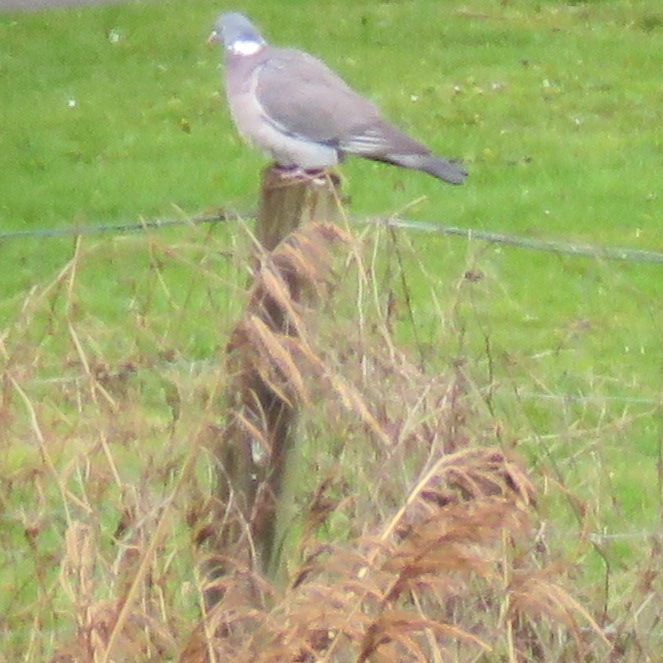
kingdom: Animalia
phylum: Chordata
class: Aves
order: Columbiformes
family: Columbidae
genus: Columba
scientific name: Columba palumbus
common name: Common wood pigeon
